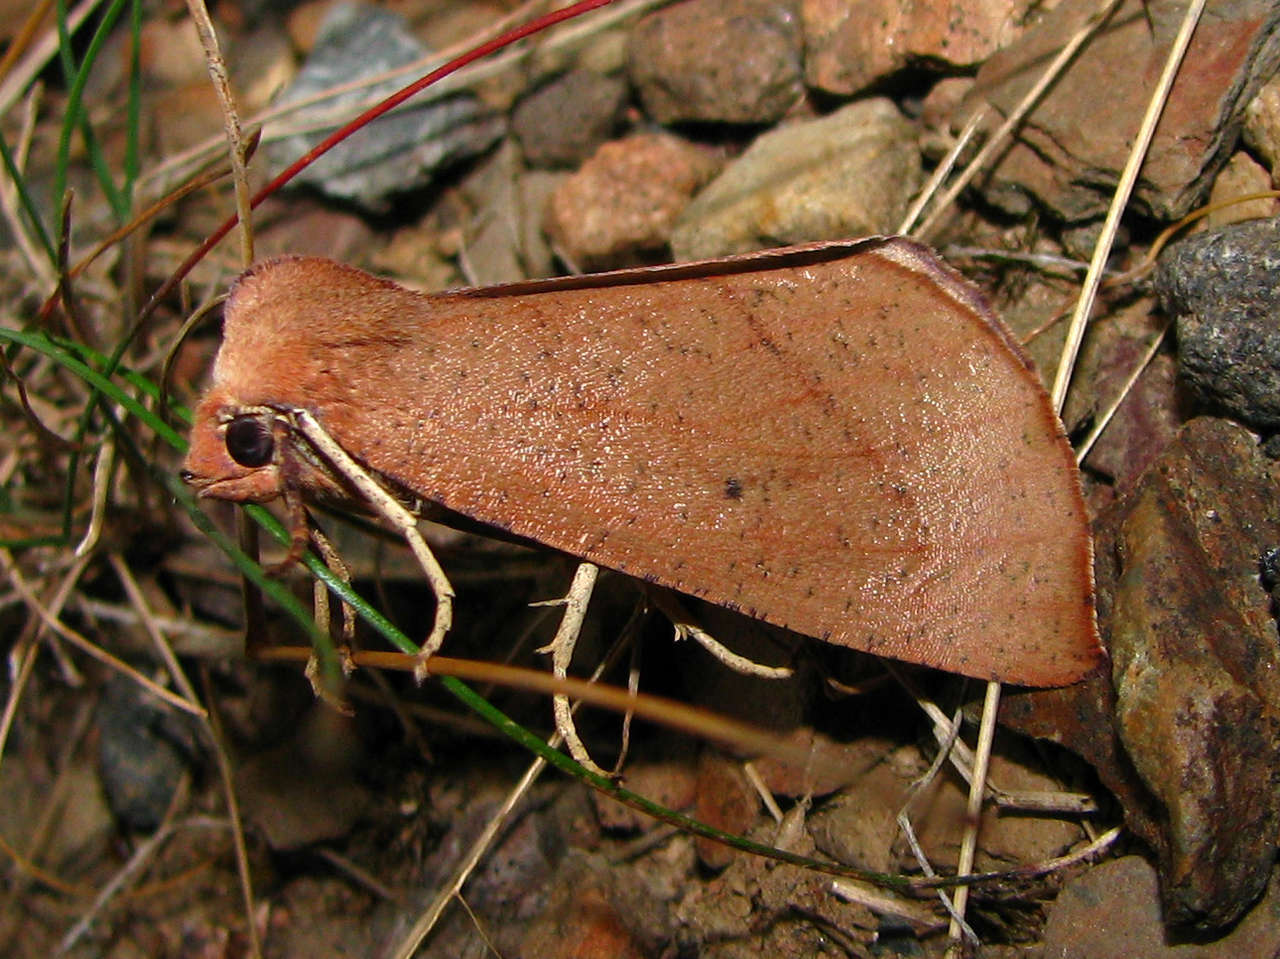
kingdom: Animalia
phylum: Arthropoda
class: Insecta
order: Lepidoptera
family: Geometridae
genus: Fisera
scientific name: Fisera hypoleuca
